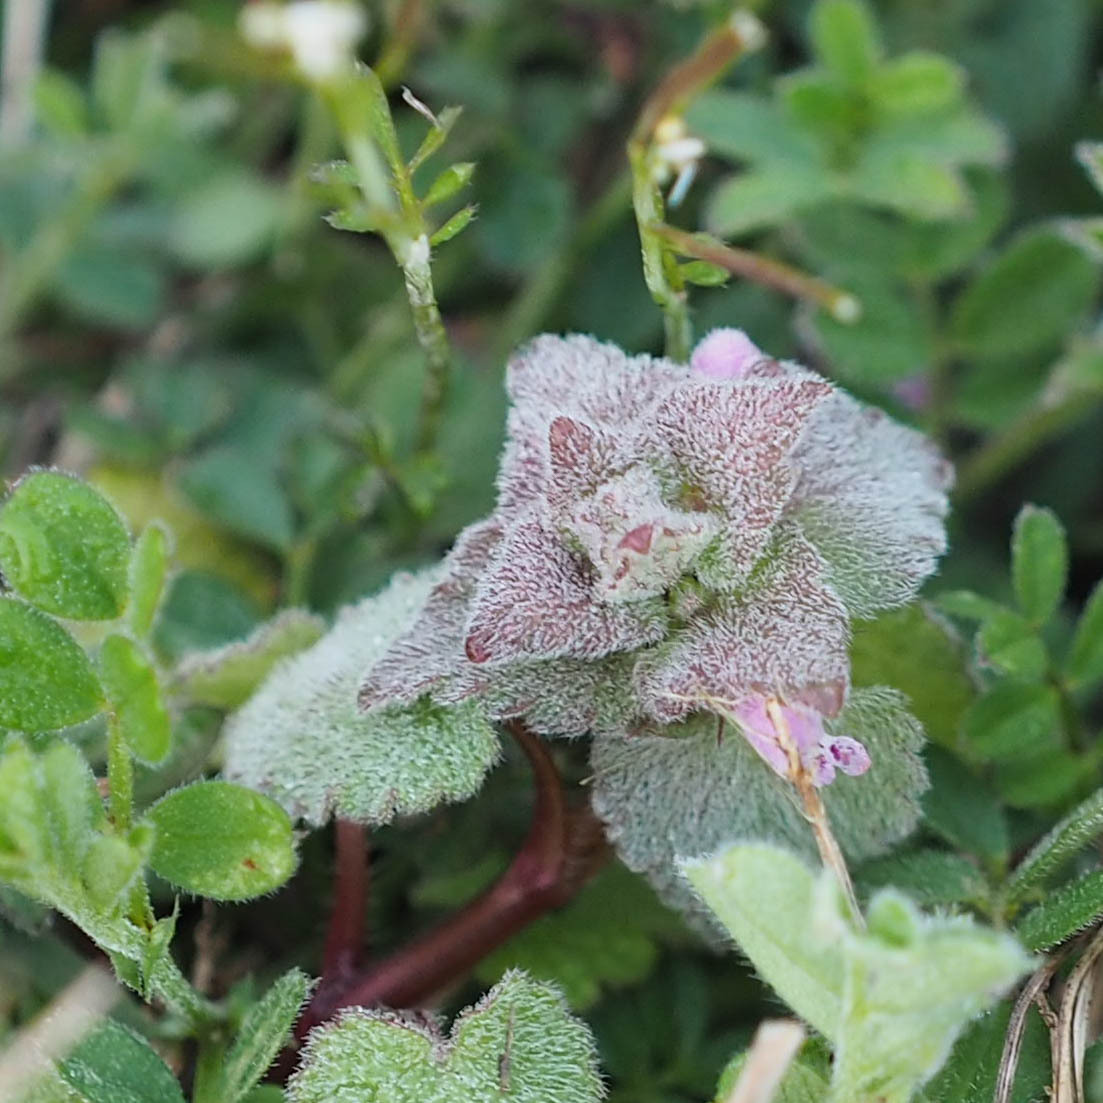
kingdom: Plantae
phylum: Tracheophyta
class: Magnoliopsida
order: Lamiales
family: Lamiaceae
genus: Lamium
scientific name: Lamium purpureum
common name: Red dead-nettle
